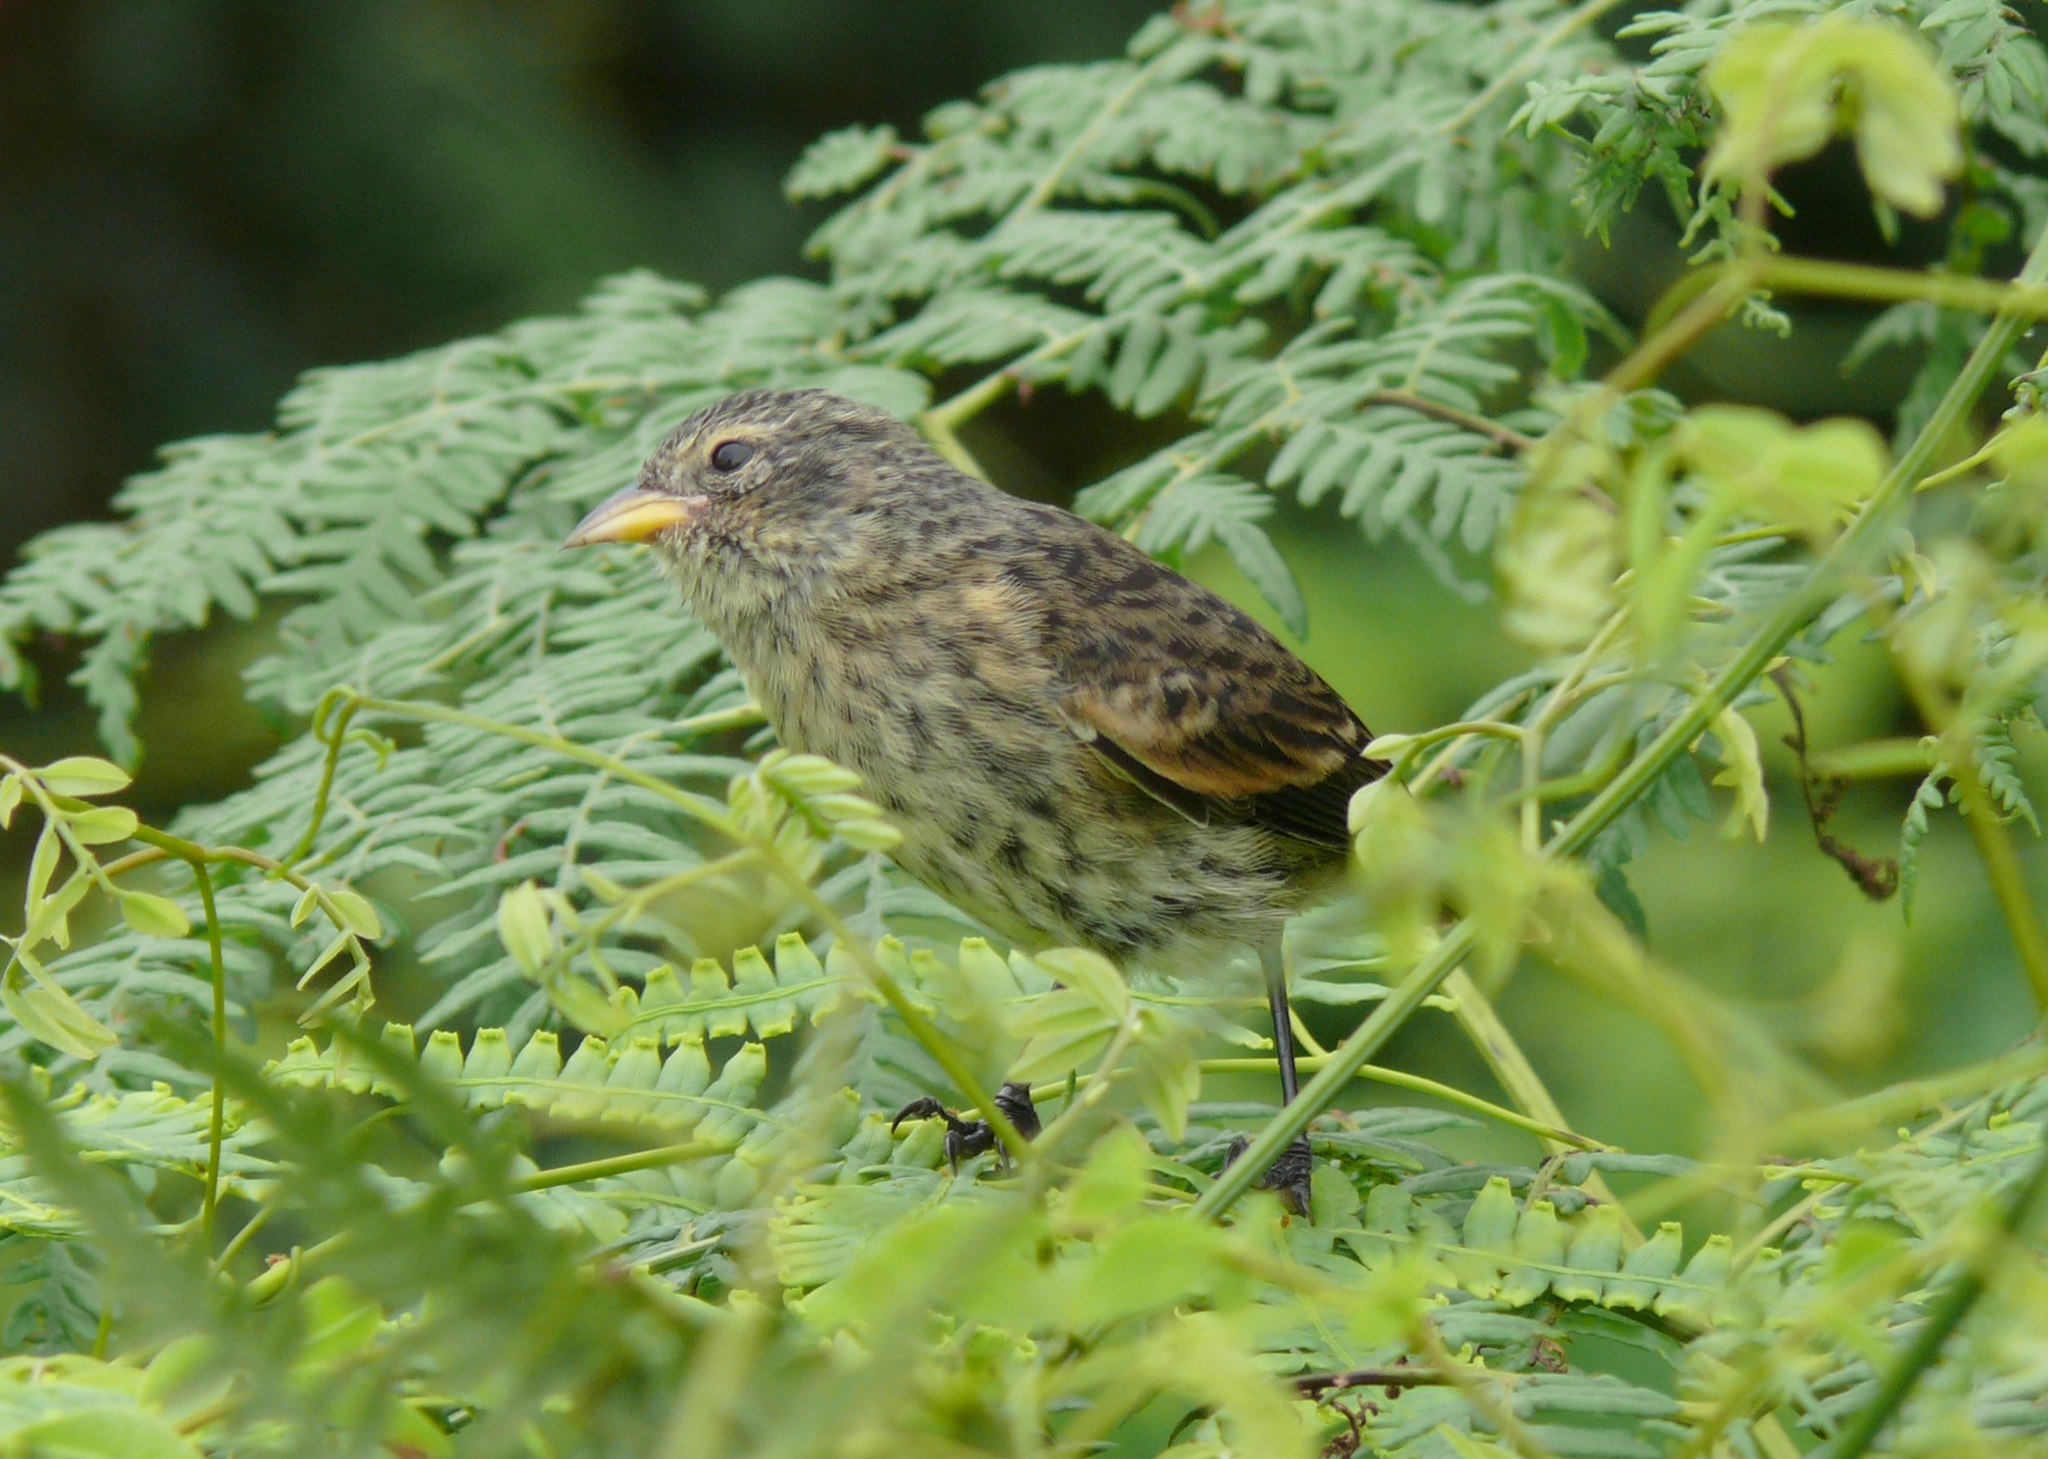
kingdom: Animalia
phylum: Chordata
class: Aves
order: Passeriformes
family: Thraupidae
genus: Pinaroloxias
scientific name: Pinaroloxias inornata
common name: Cocos finch
